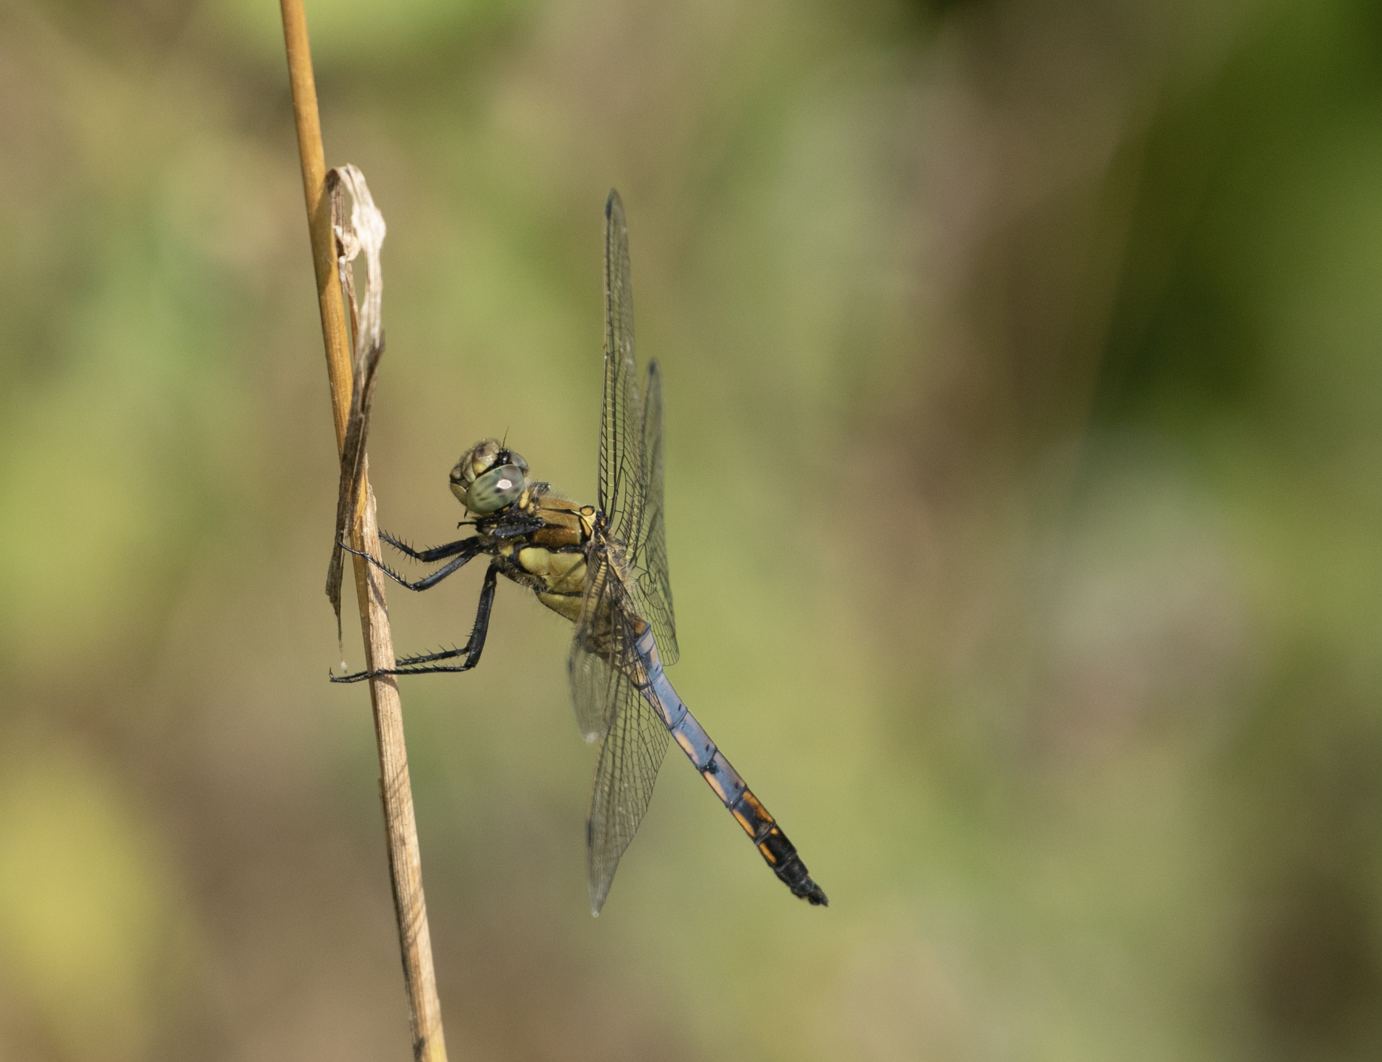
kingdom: Animalia
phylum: Arthropoda
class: Insecta
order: Odonata
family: Libellulidae
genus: Orthetrum
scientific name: Orthetrum cancellatum
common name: Black-tailed skimmer
